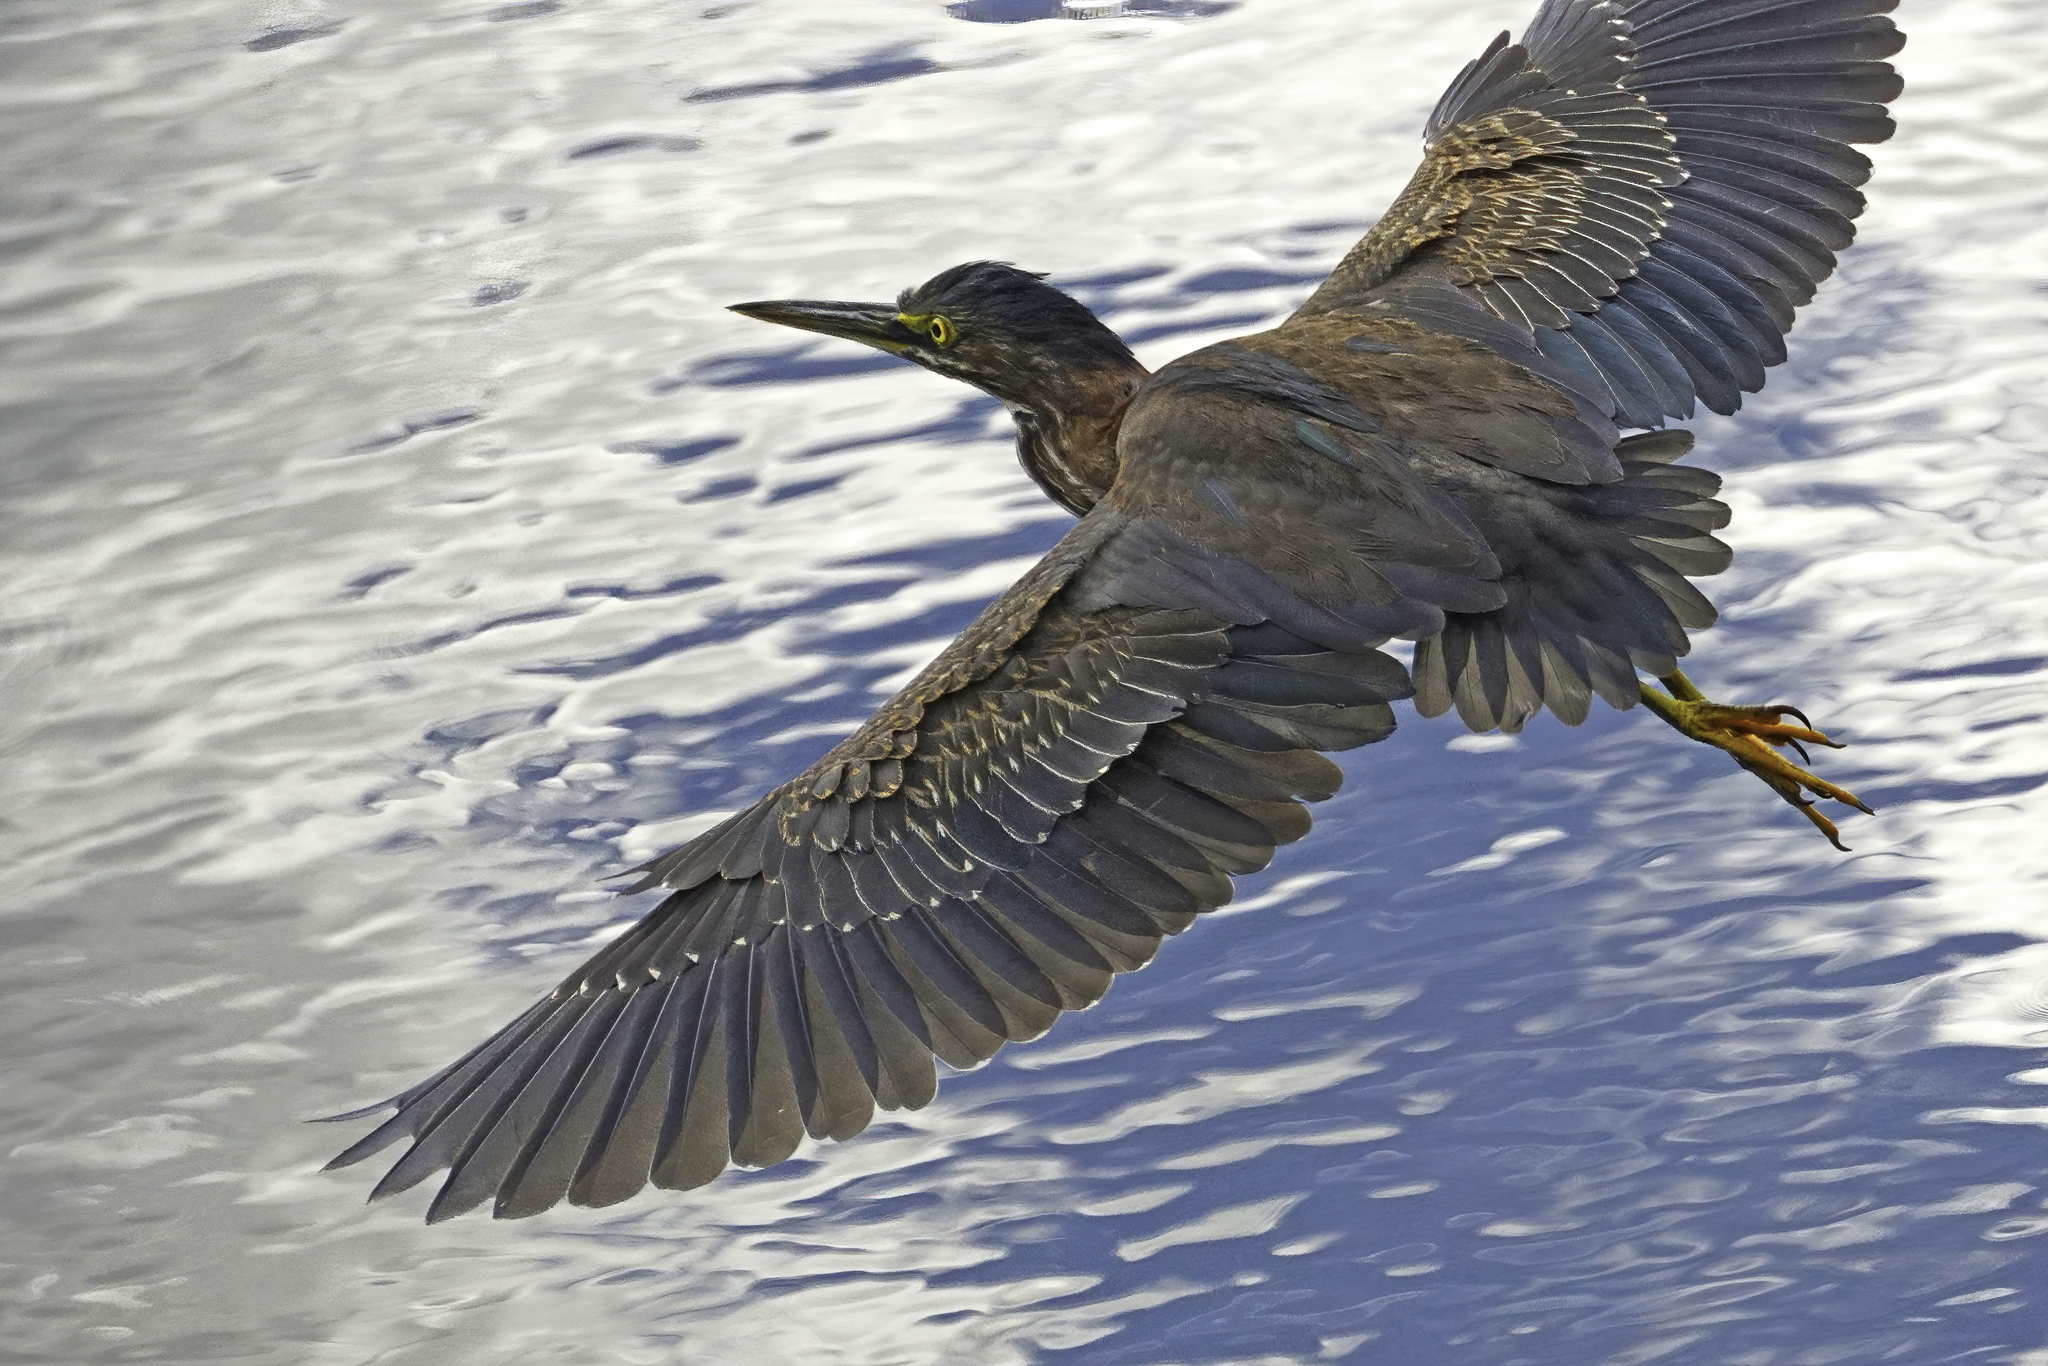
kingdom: Animalia
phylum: Chordata
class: Aves
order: Pelecaniformes
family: Ardeidae
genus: Butorides
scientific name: Butorides virescens
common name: Green heron
